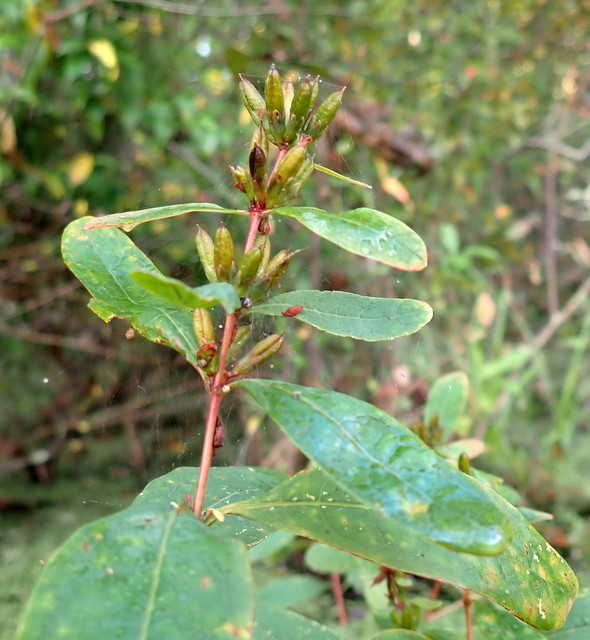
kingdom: Plantae
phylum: Tracheophyta
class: Magnoliopsida
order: Malpighiales
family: Hypericaceae
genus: Triadenum
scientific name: Triadenum walteri
